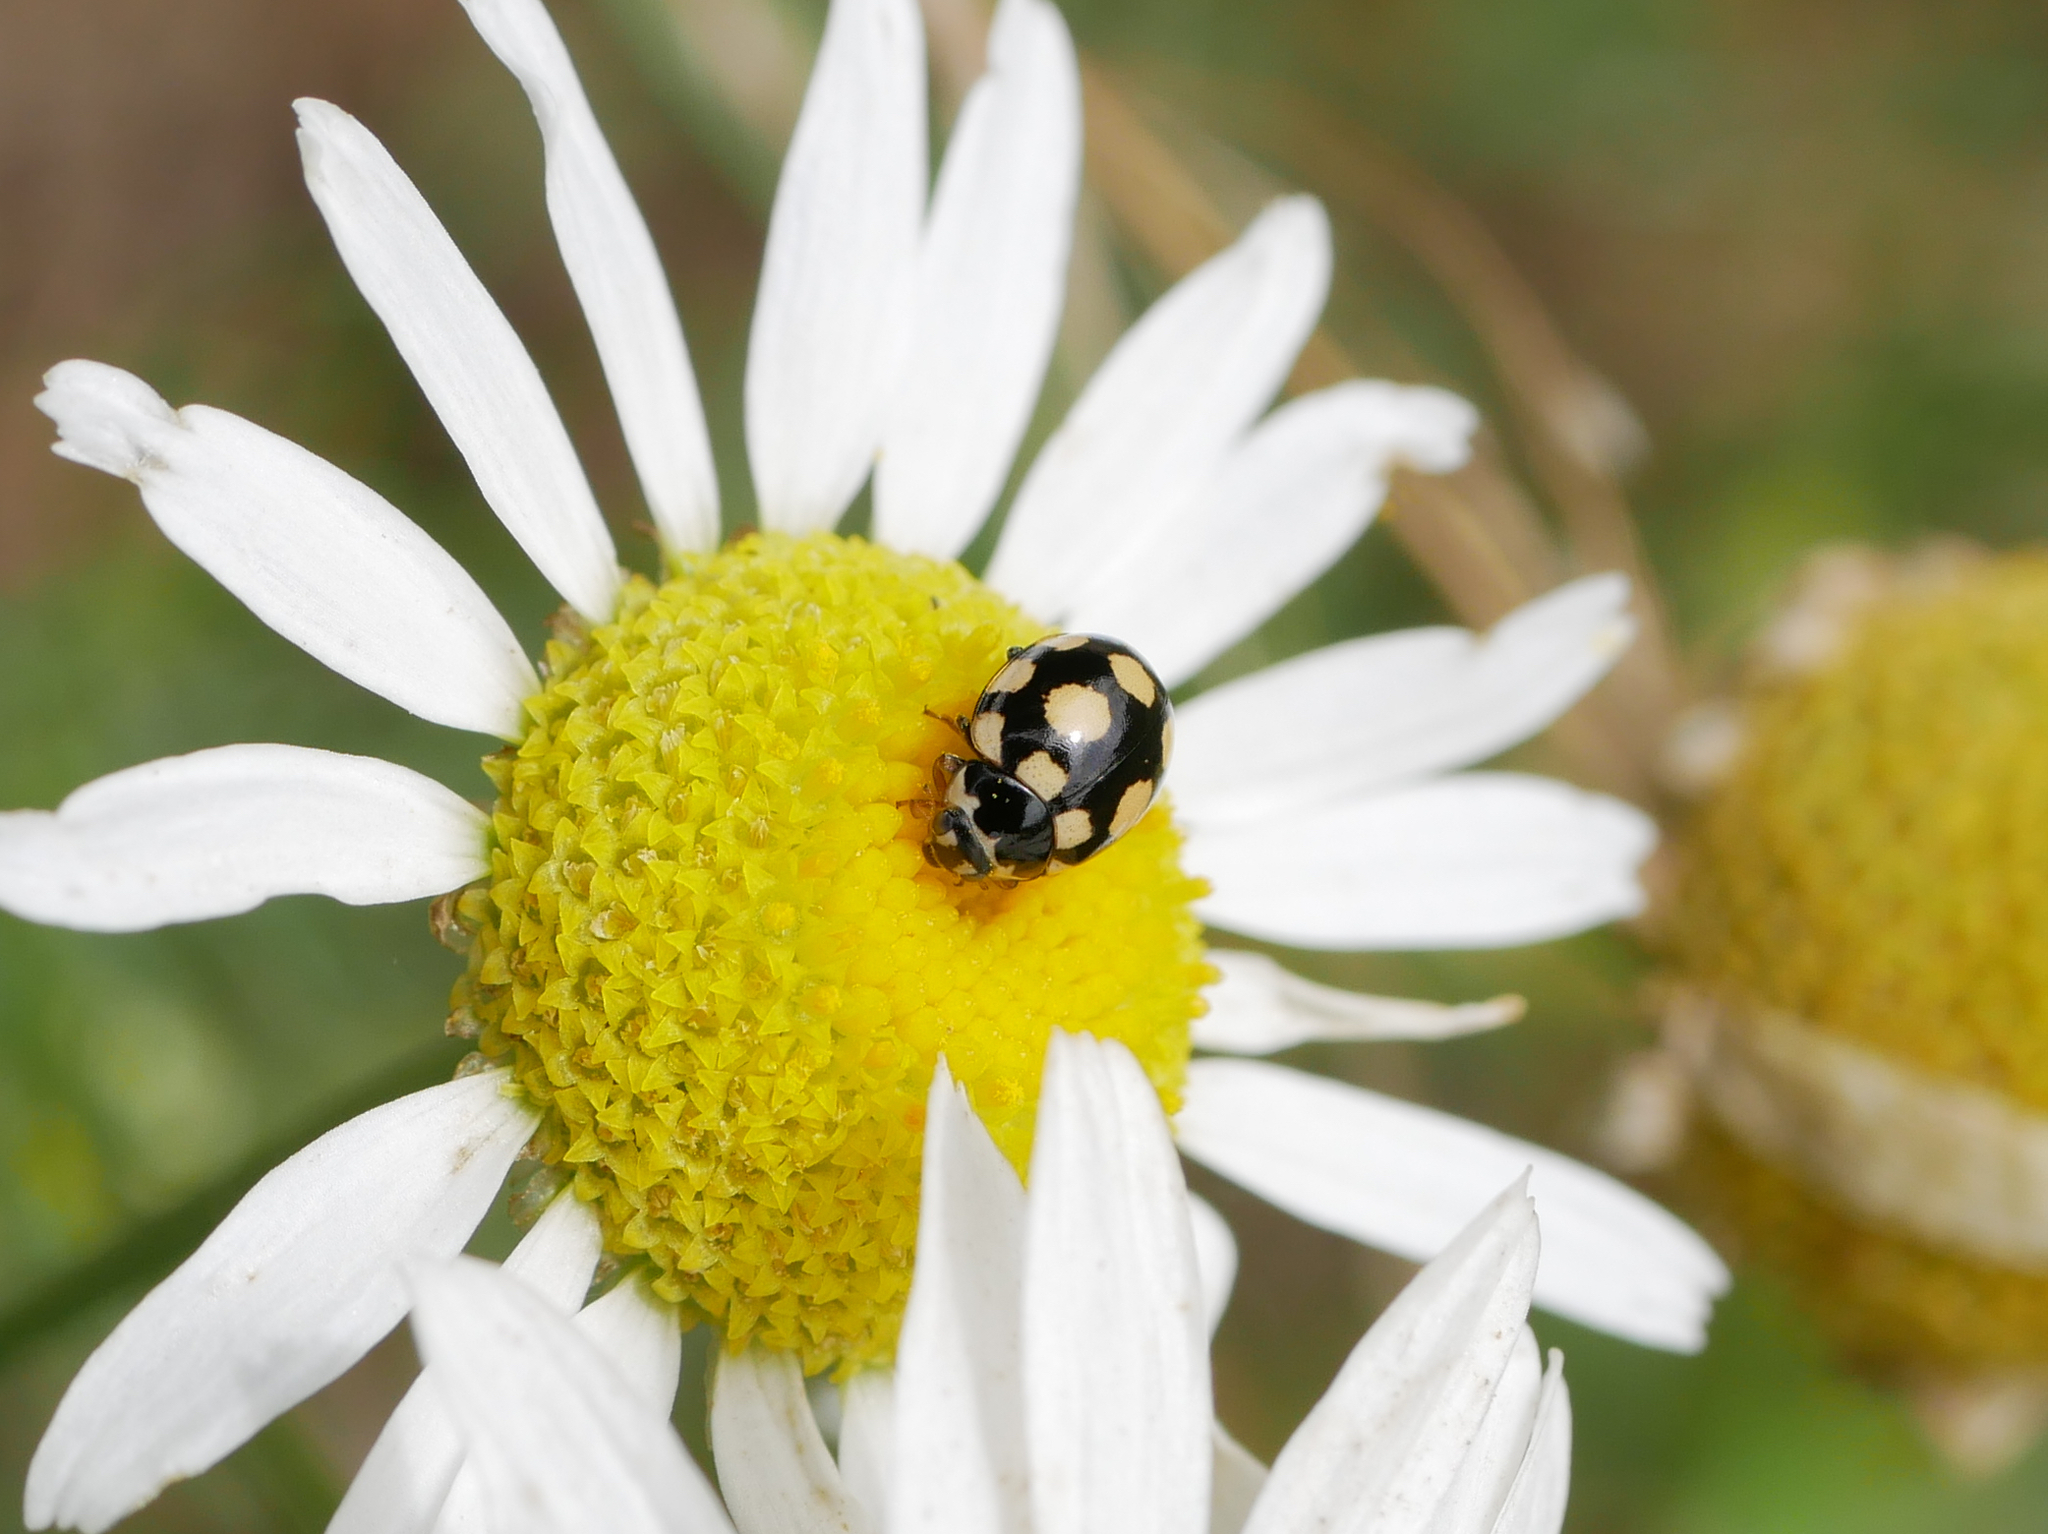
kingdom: Animalia
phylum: Arthropoda
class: Insecta
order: Coleoptera
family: Coccinellidae
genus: Coccinula
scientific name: Coccinula quatuordecimpustulata
